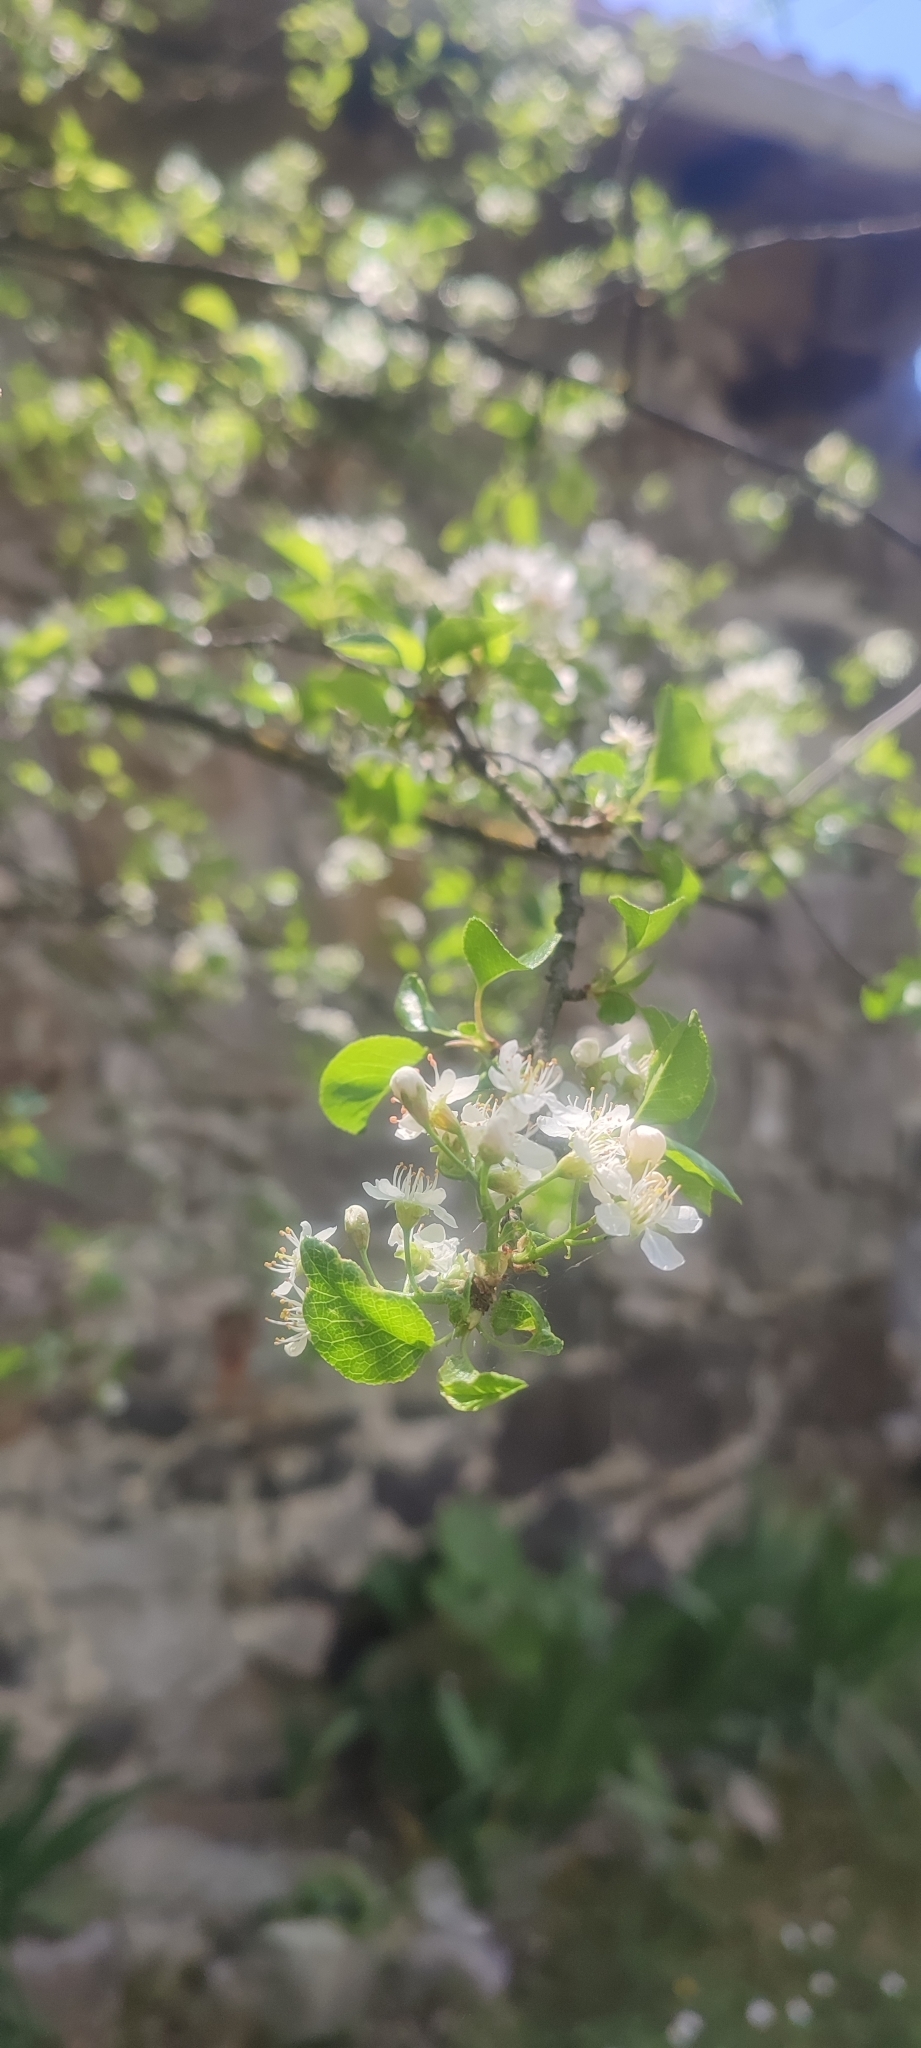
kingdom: Plantae
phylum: Tracheophyta
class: Magnoliopsida
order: Rosales
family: Rosaceae
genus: Prunus
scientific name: Prunus mahaleb
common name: Mahaleb cherry
